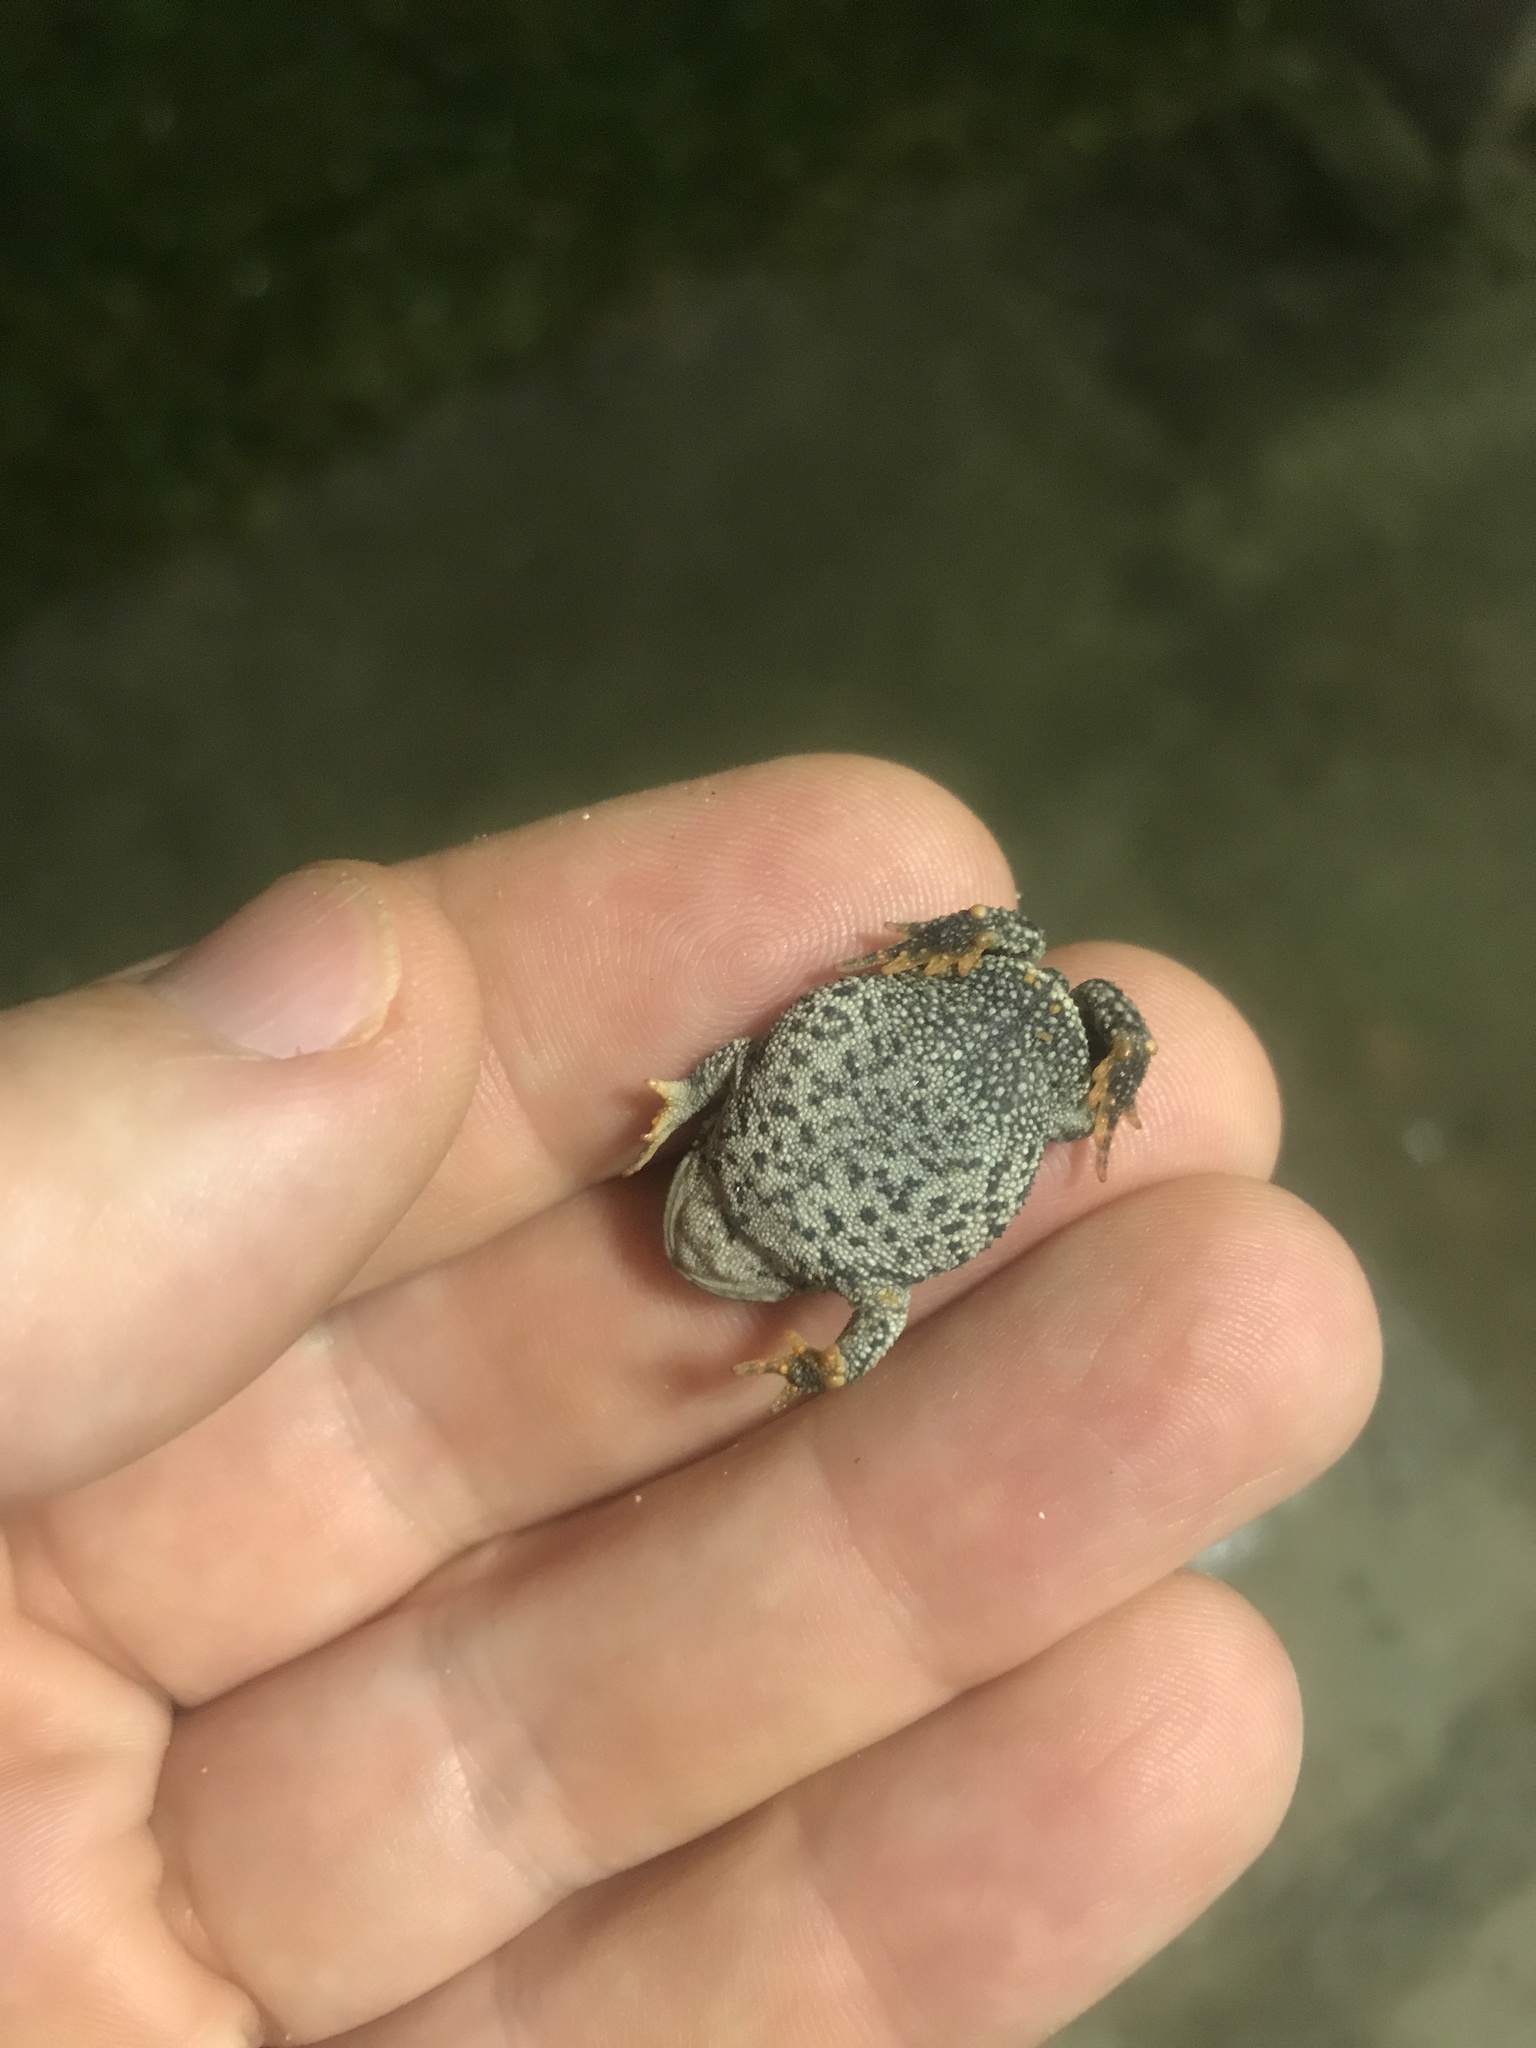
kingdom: Animalia
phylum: Chordata
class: Amphibia
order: Anura
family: Bufonidae
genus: Rhinella
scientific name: Rhinella dorbignyi
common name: D´orbigny’s toad
